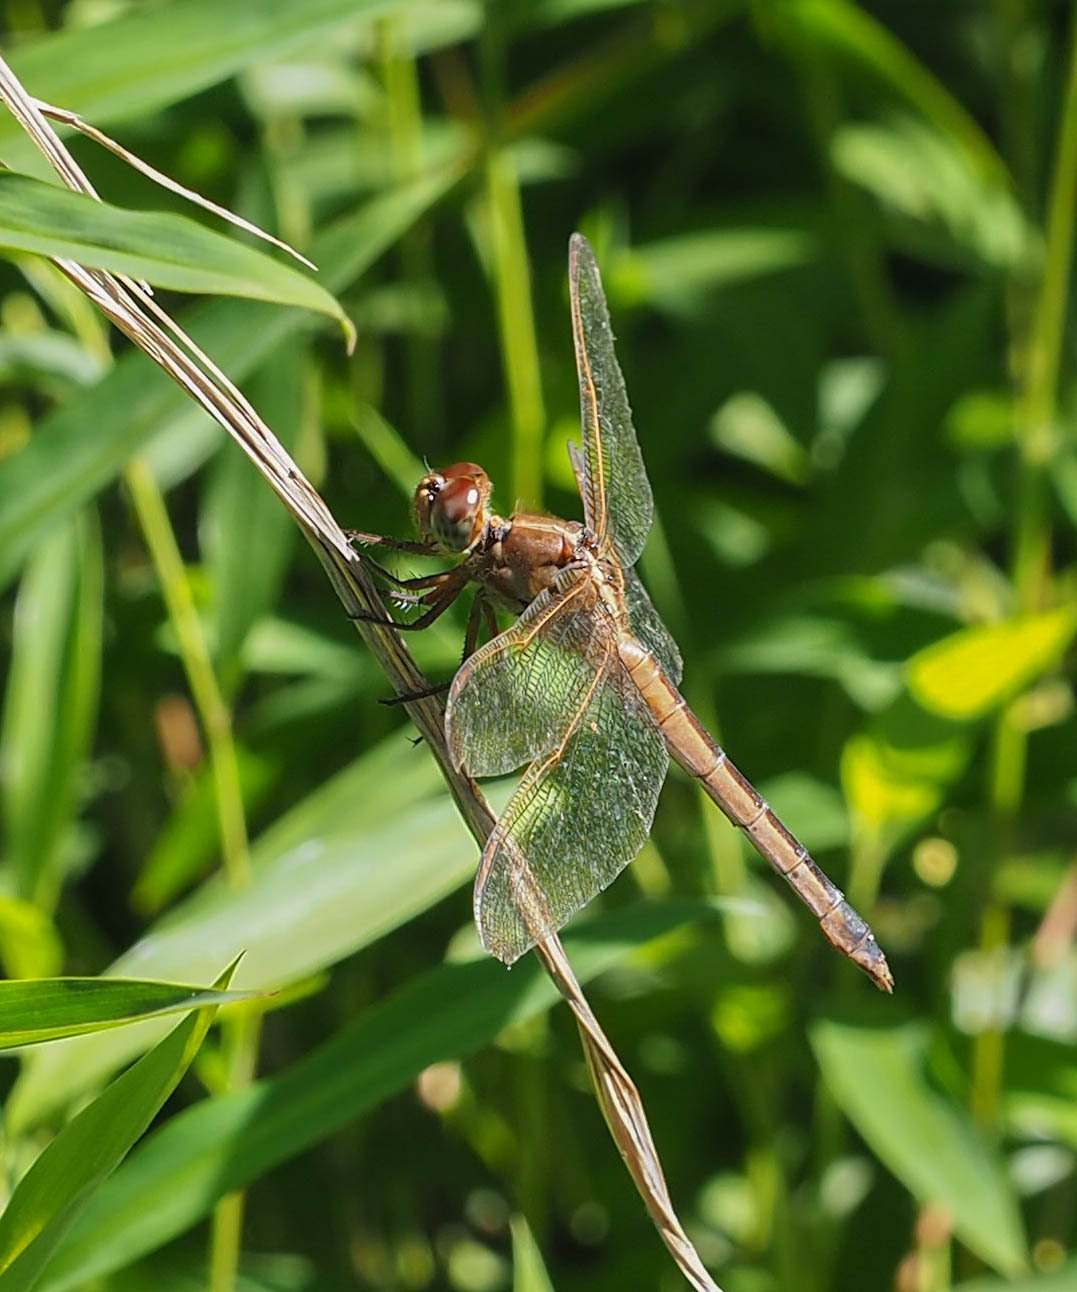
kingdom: Animalia
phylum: Arthropoda
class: Insecta
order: Odonata
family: Libellulidae
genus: Libellula
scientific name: Libellula needhami
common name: Needham's skimmer
